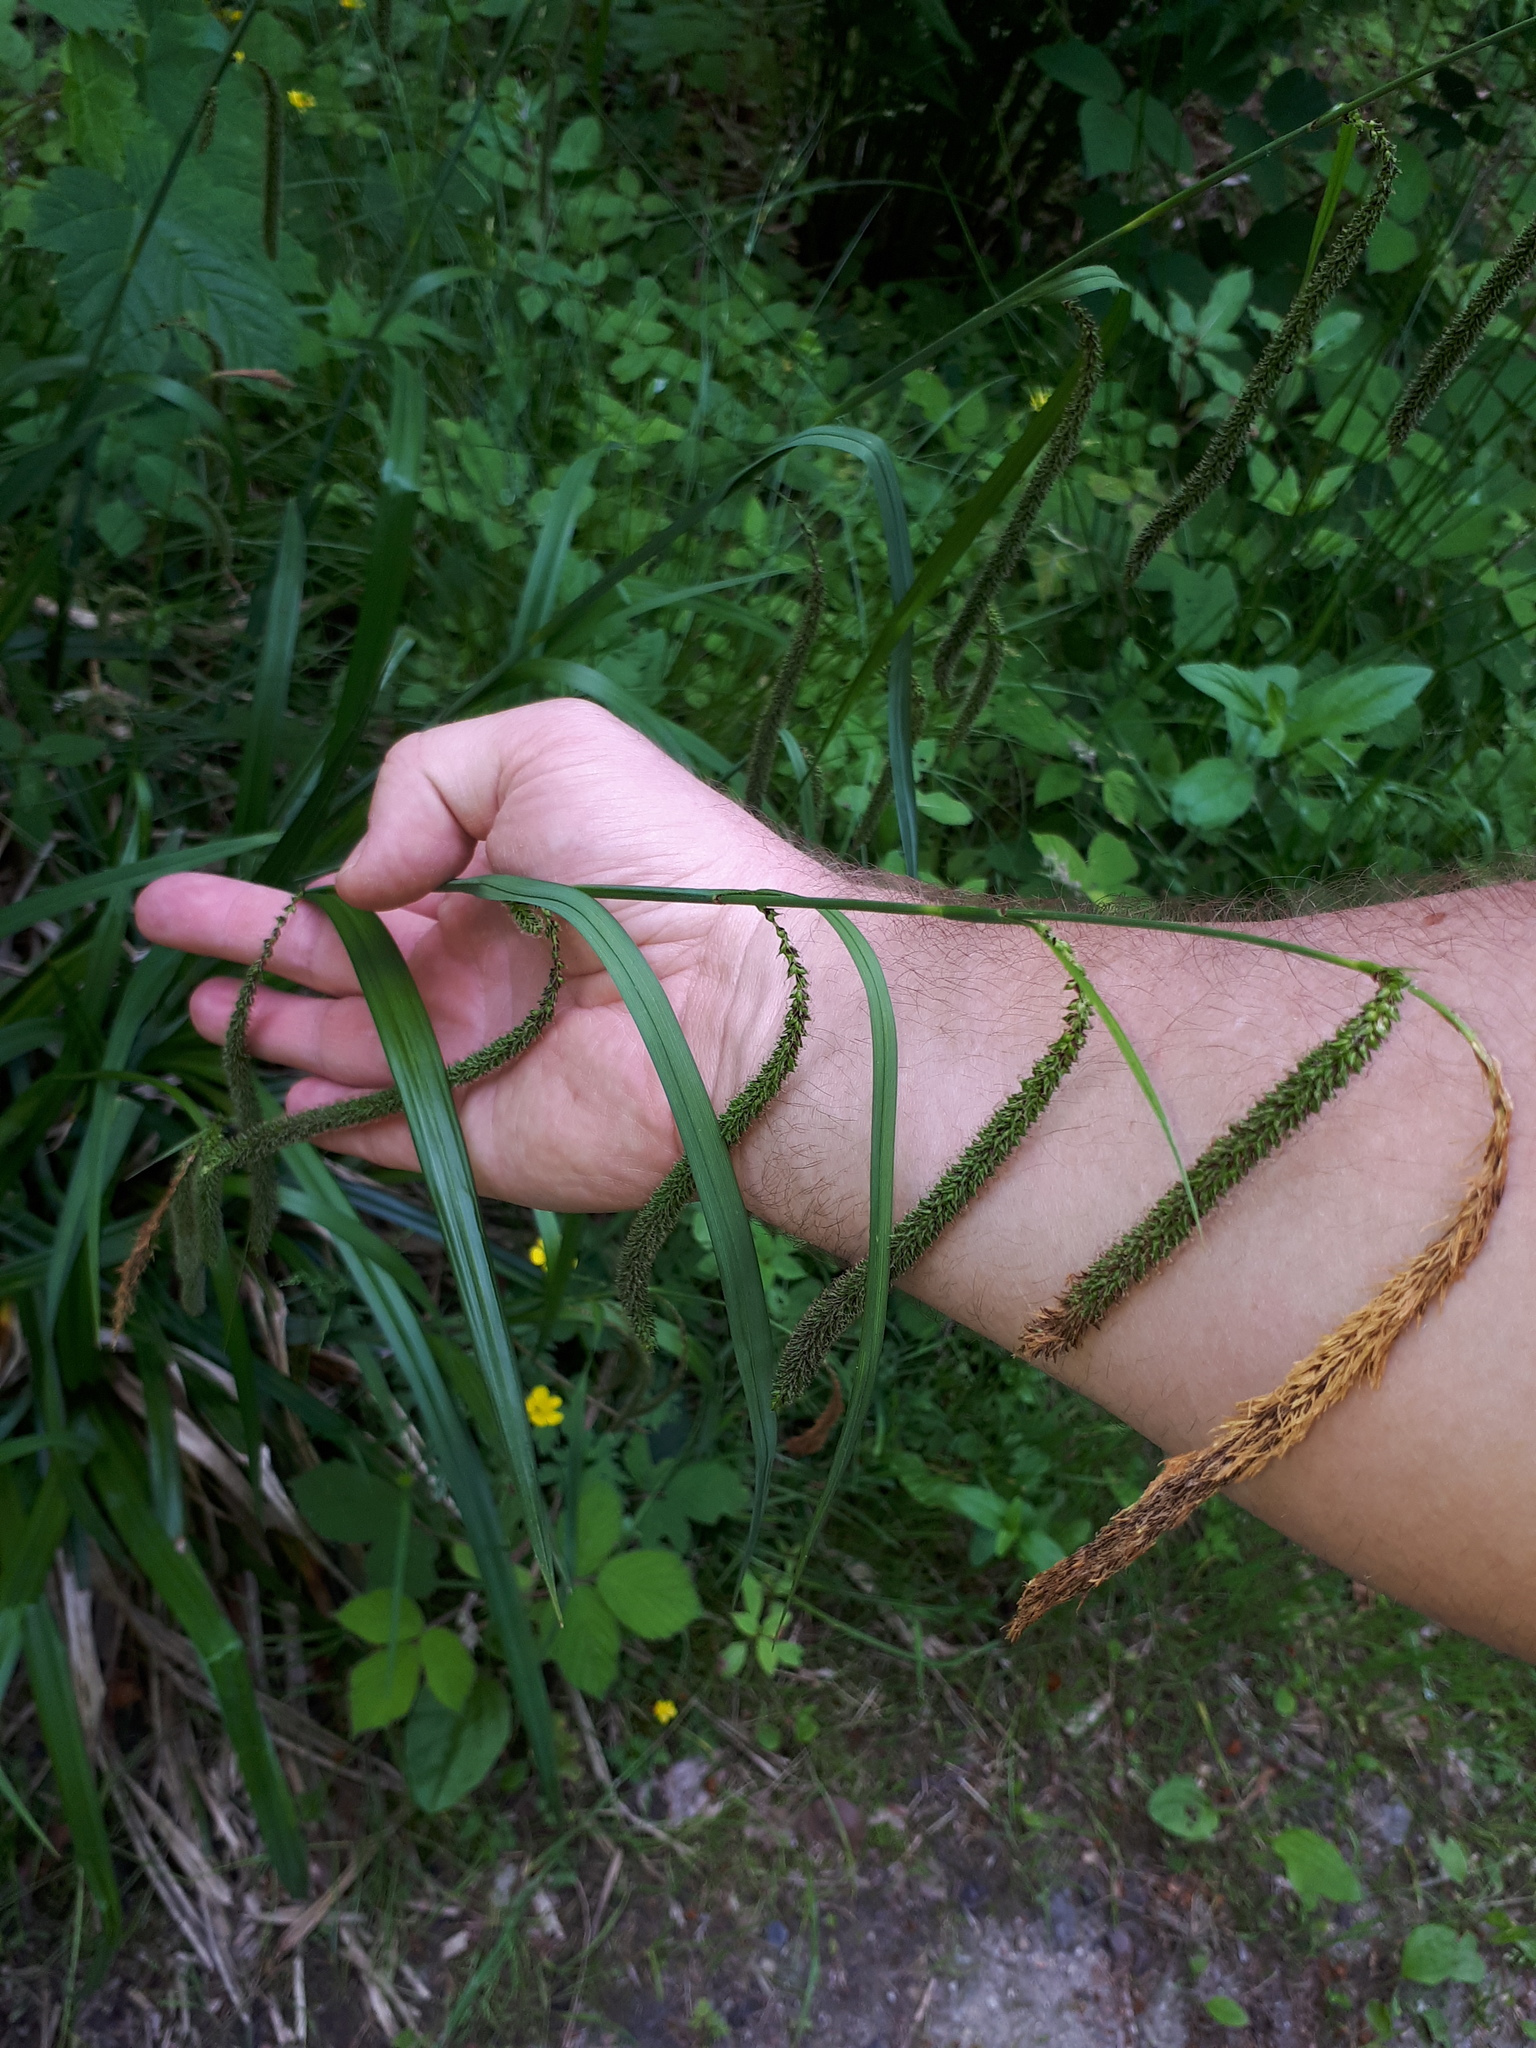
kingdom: Plantae
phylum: Tracheophyta
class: Liliopsida
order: Poales
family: Cyperaceae
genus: Carex
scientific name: Carex pendula
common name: Pendulous sedge
